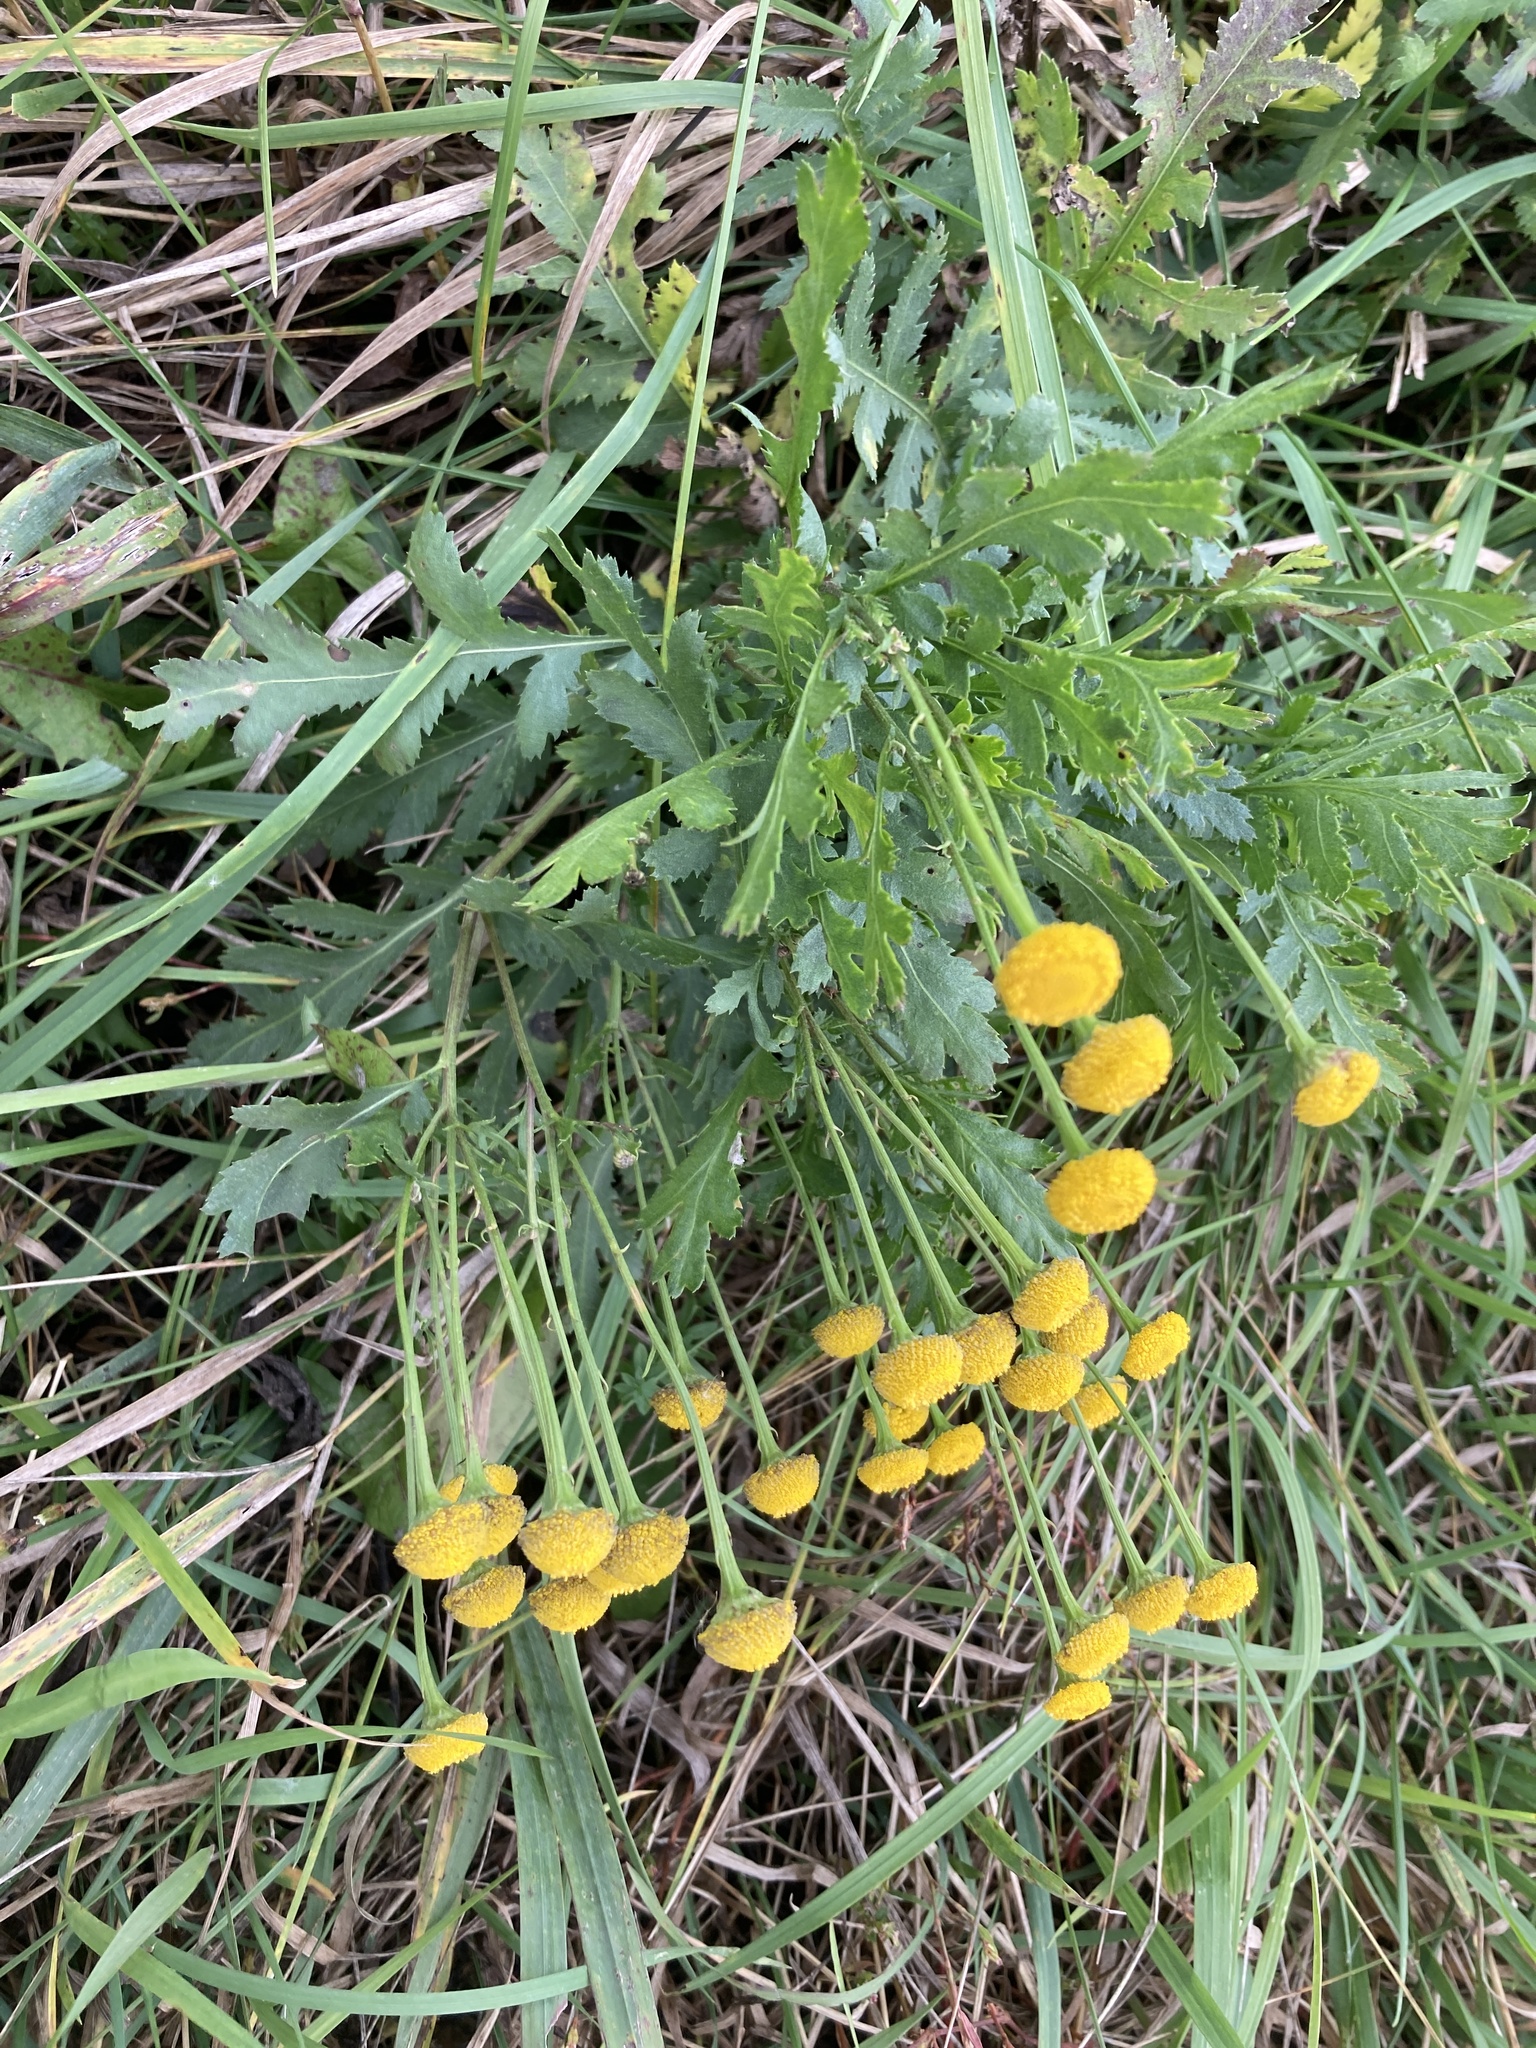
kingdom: Plantae
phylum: Tracheophyta
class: Magnoliopsida
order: Asterales
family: Asteraceae
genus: Tanacetum
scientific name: Tanacetum vulgare
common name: Common tansy
